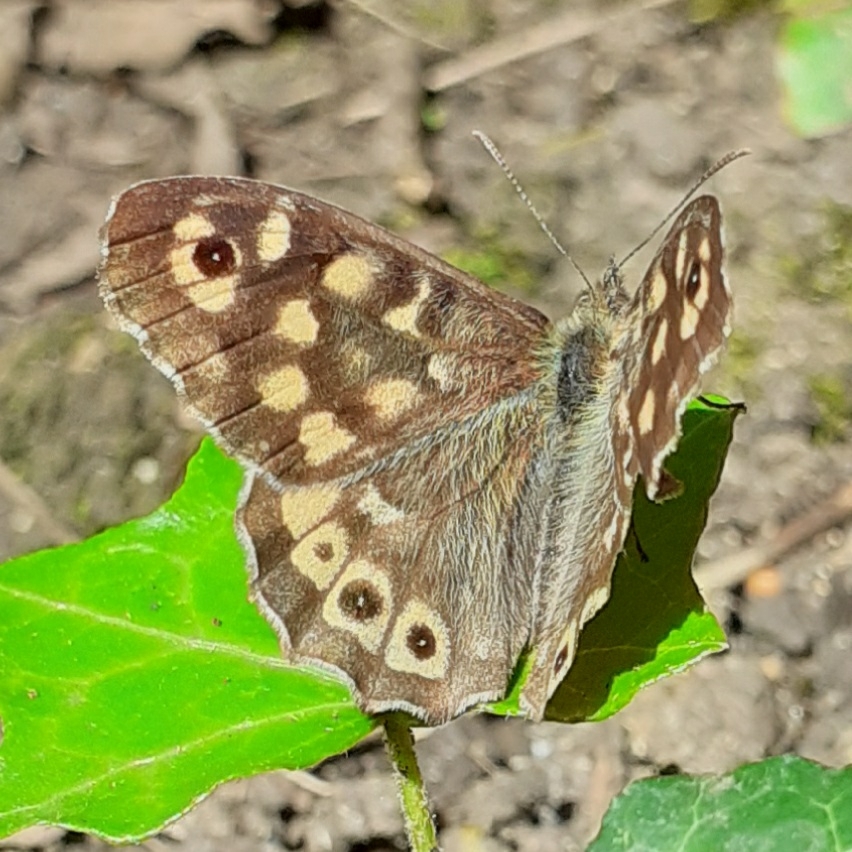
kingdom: Animalia
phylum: Arthropoda
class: Insecta
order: Lepidoptera
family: Nymphalidae
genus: Pararge
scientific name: Pararge aegeria
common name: Speckled wood
